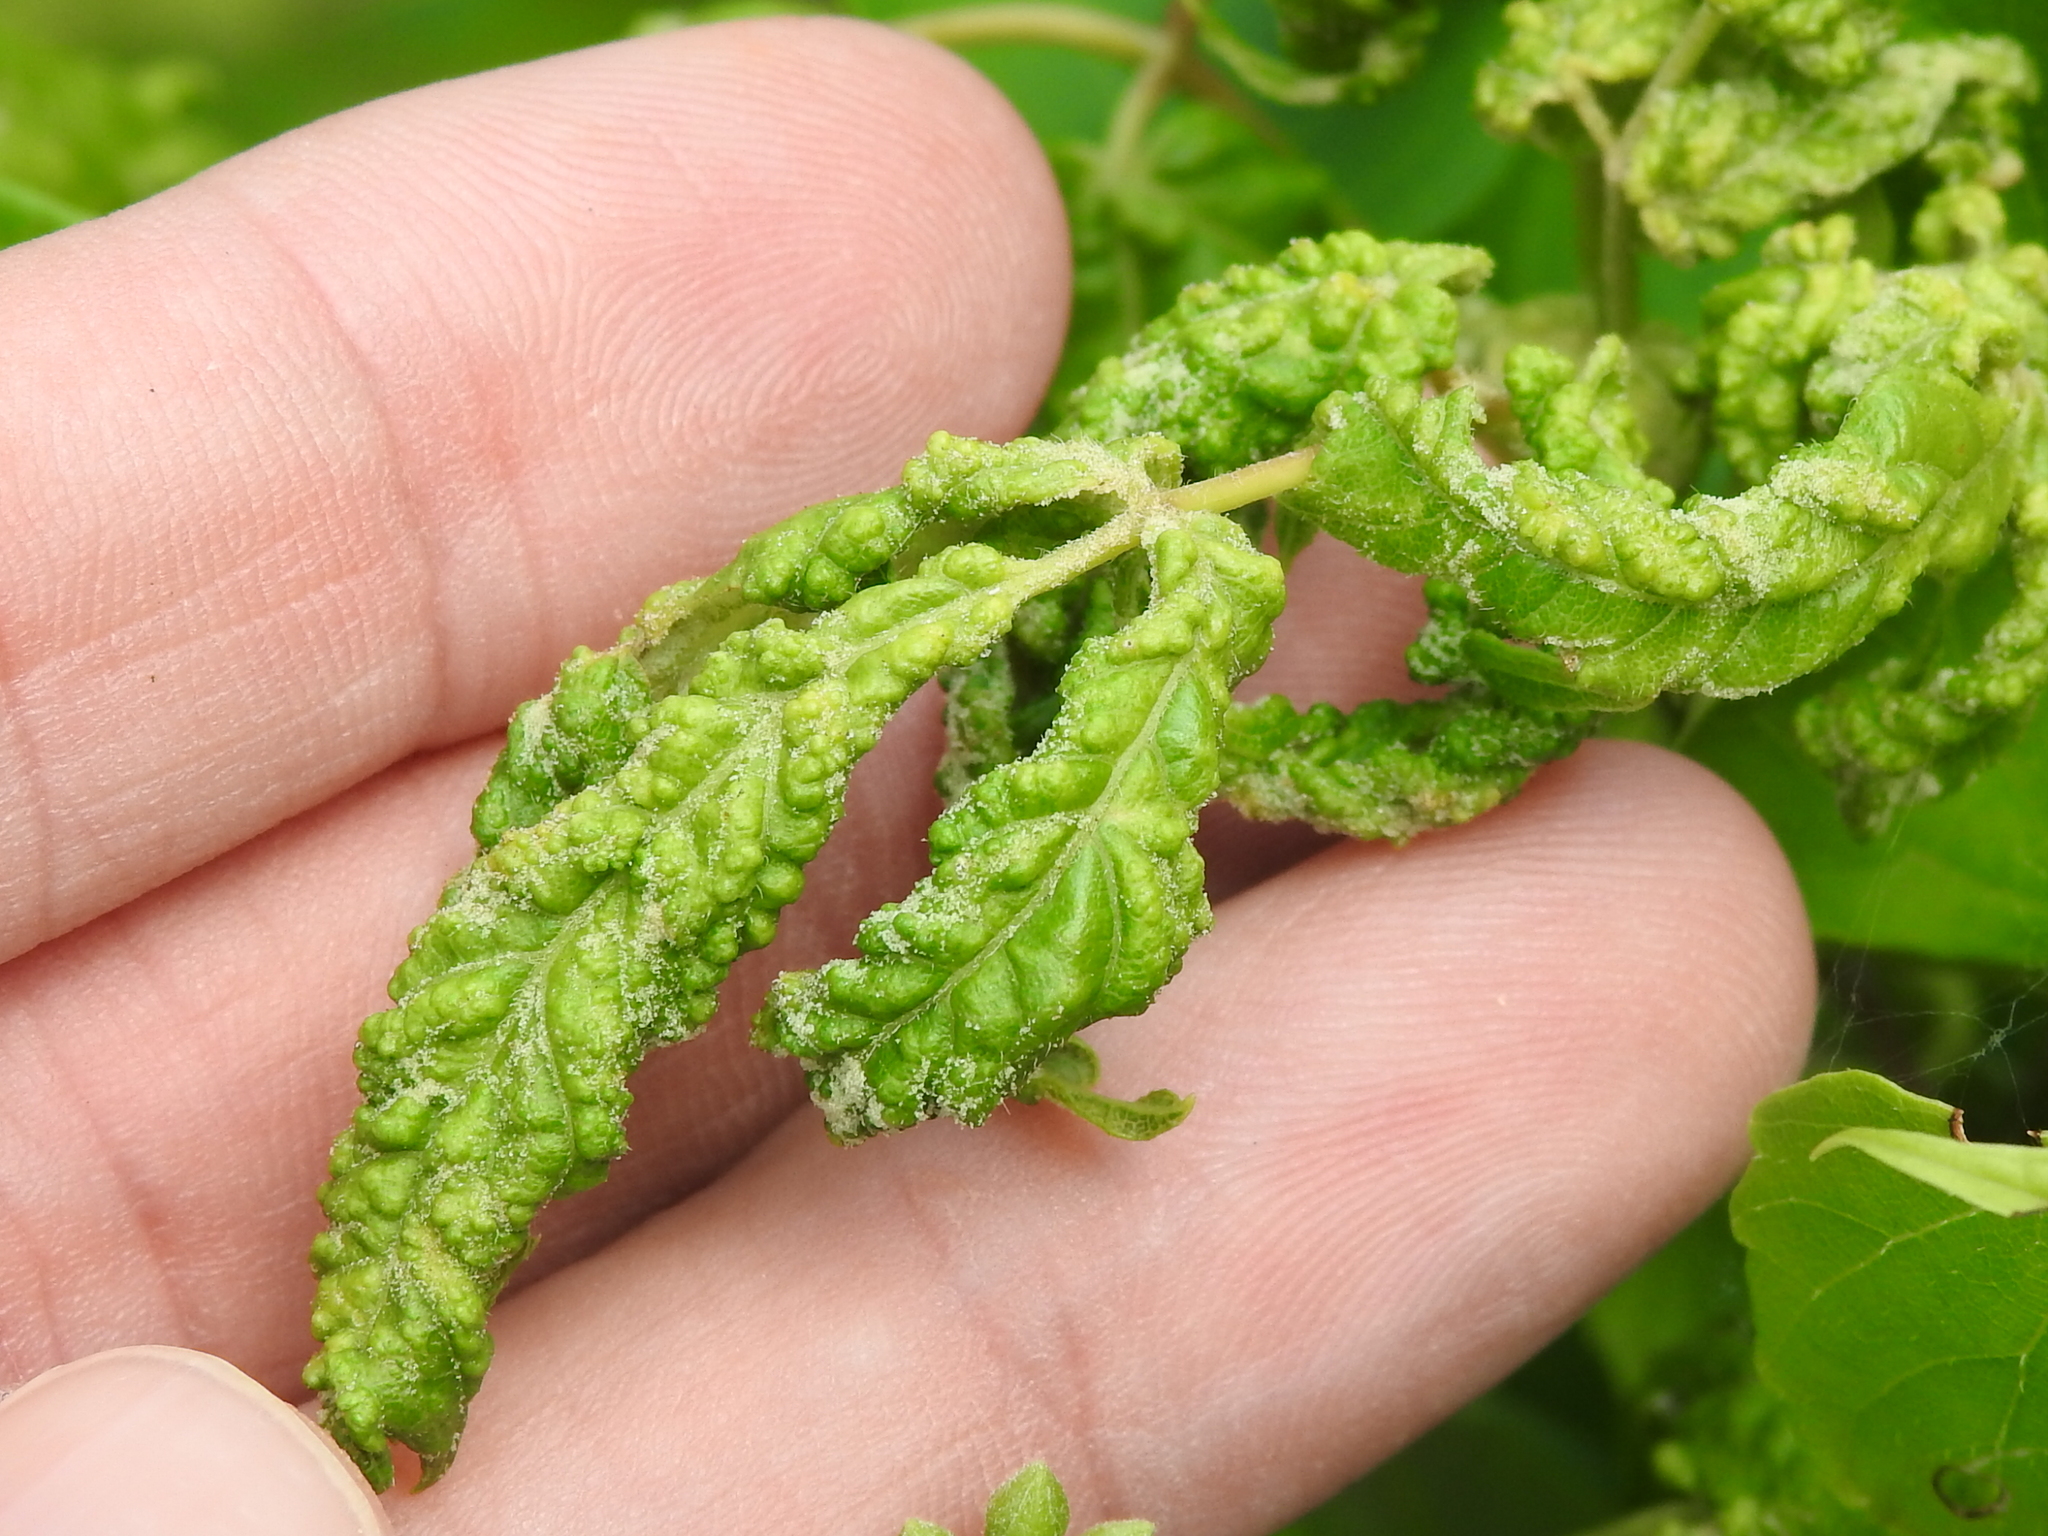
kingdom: Animalia
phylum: Arthropoda
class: Arachnida
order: Trombidiformes
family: Eriophyidae
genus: Aceria
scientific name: Aceria
